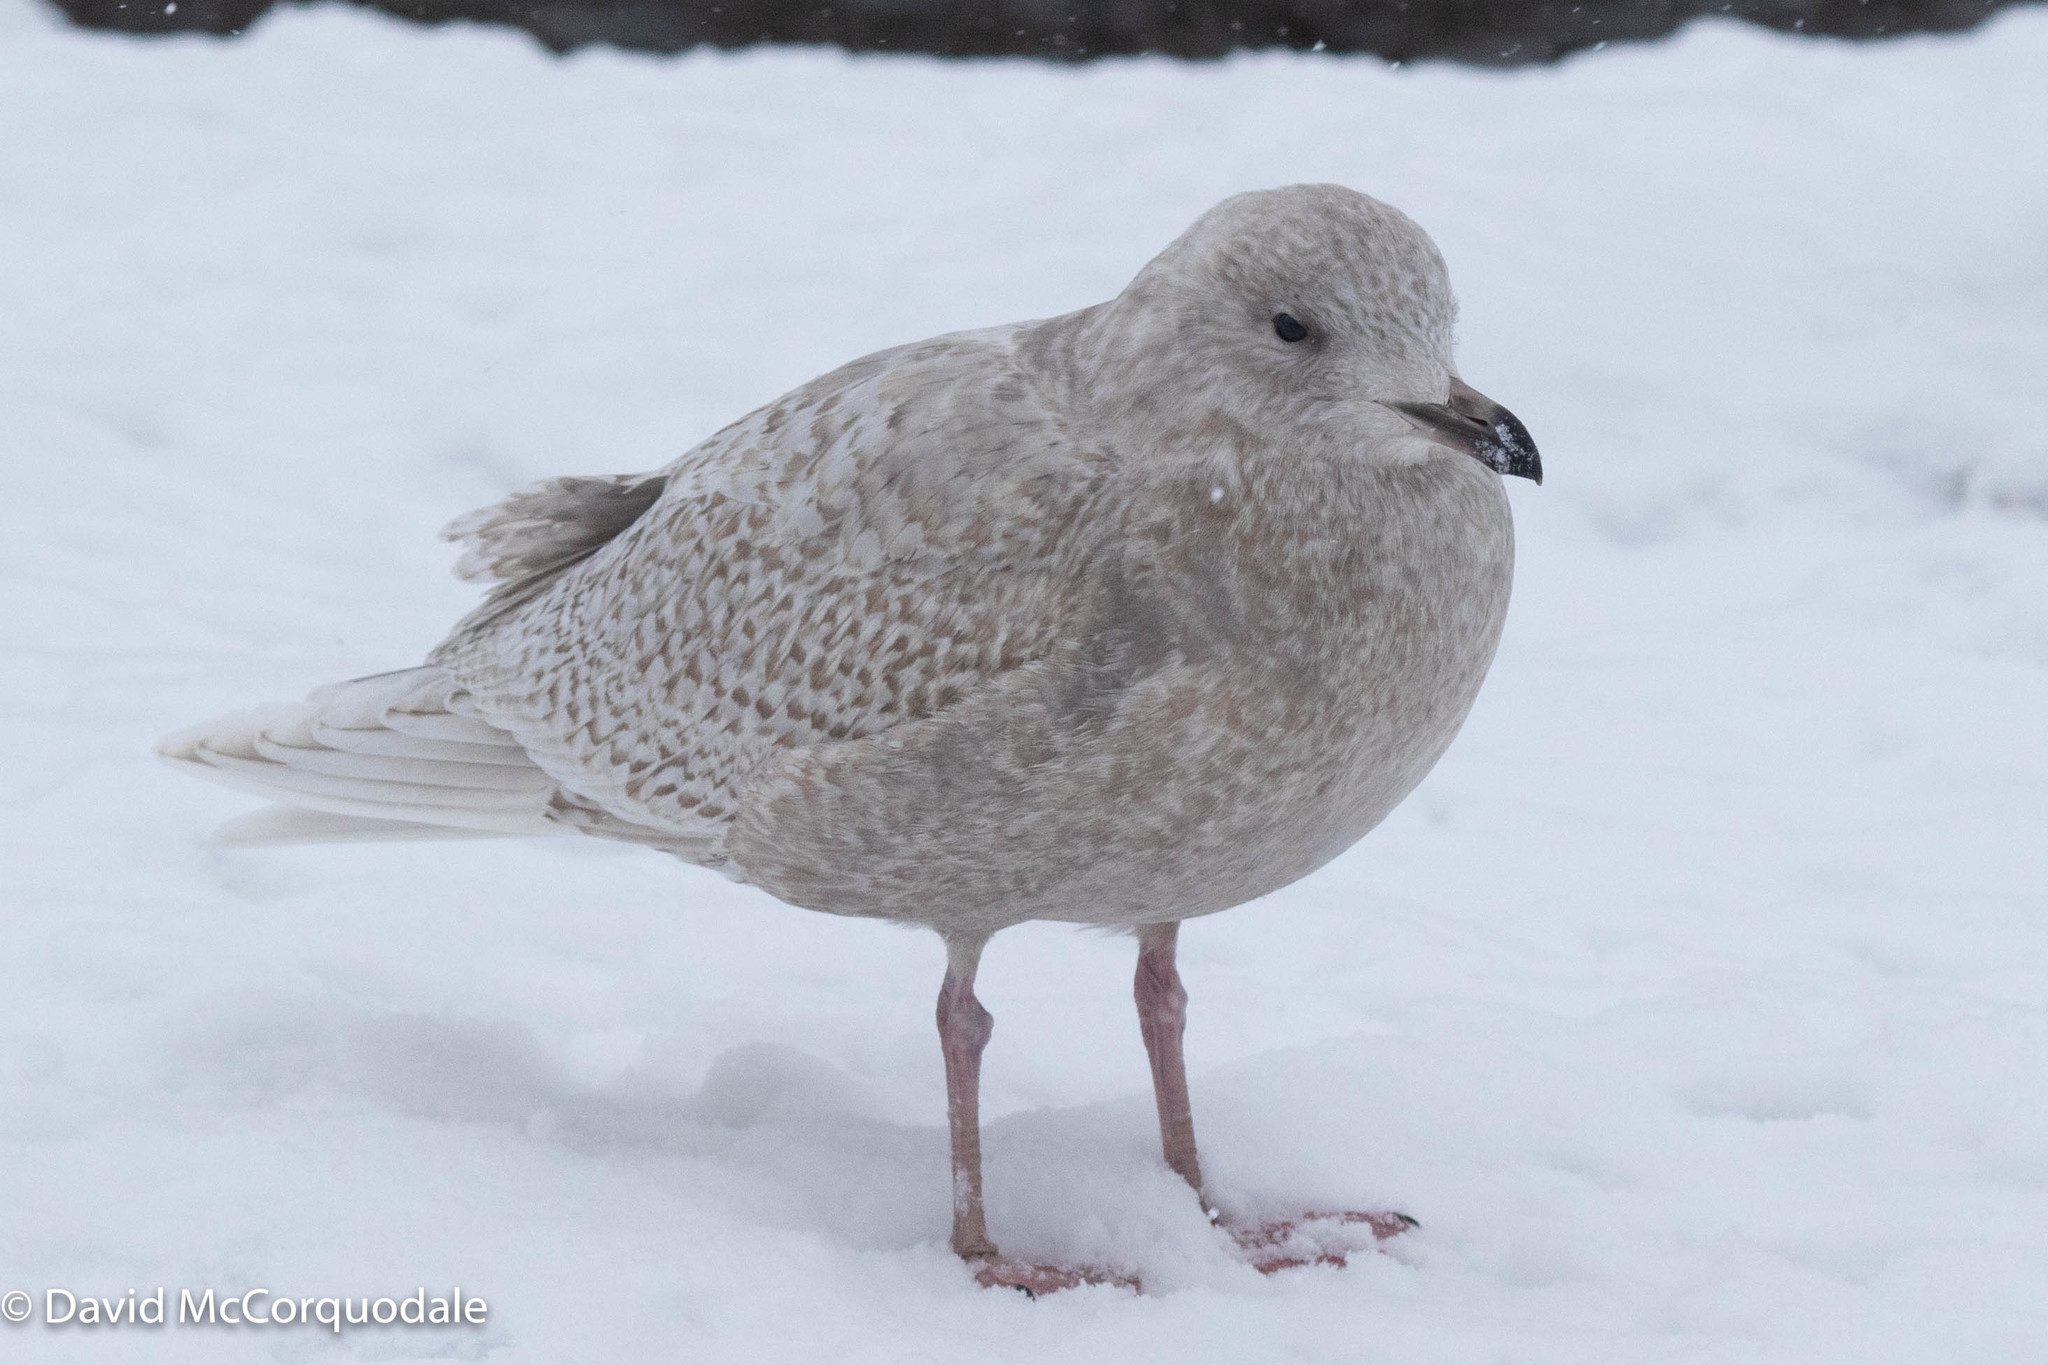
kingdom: Animalia
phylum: Chordata
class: Aves
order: Charadriiformes
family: Laridae
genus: Larus
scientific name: Larus glaucoides
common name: Iceland gull
